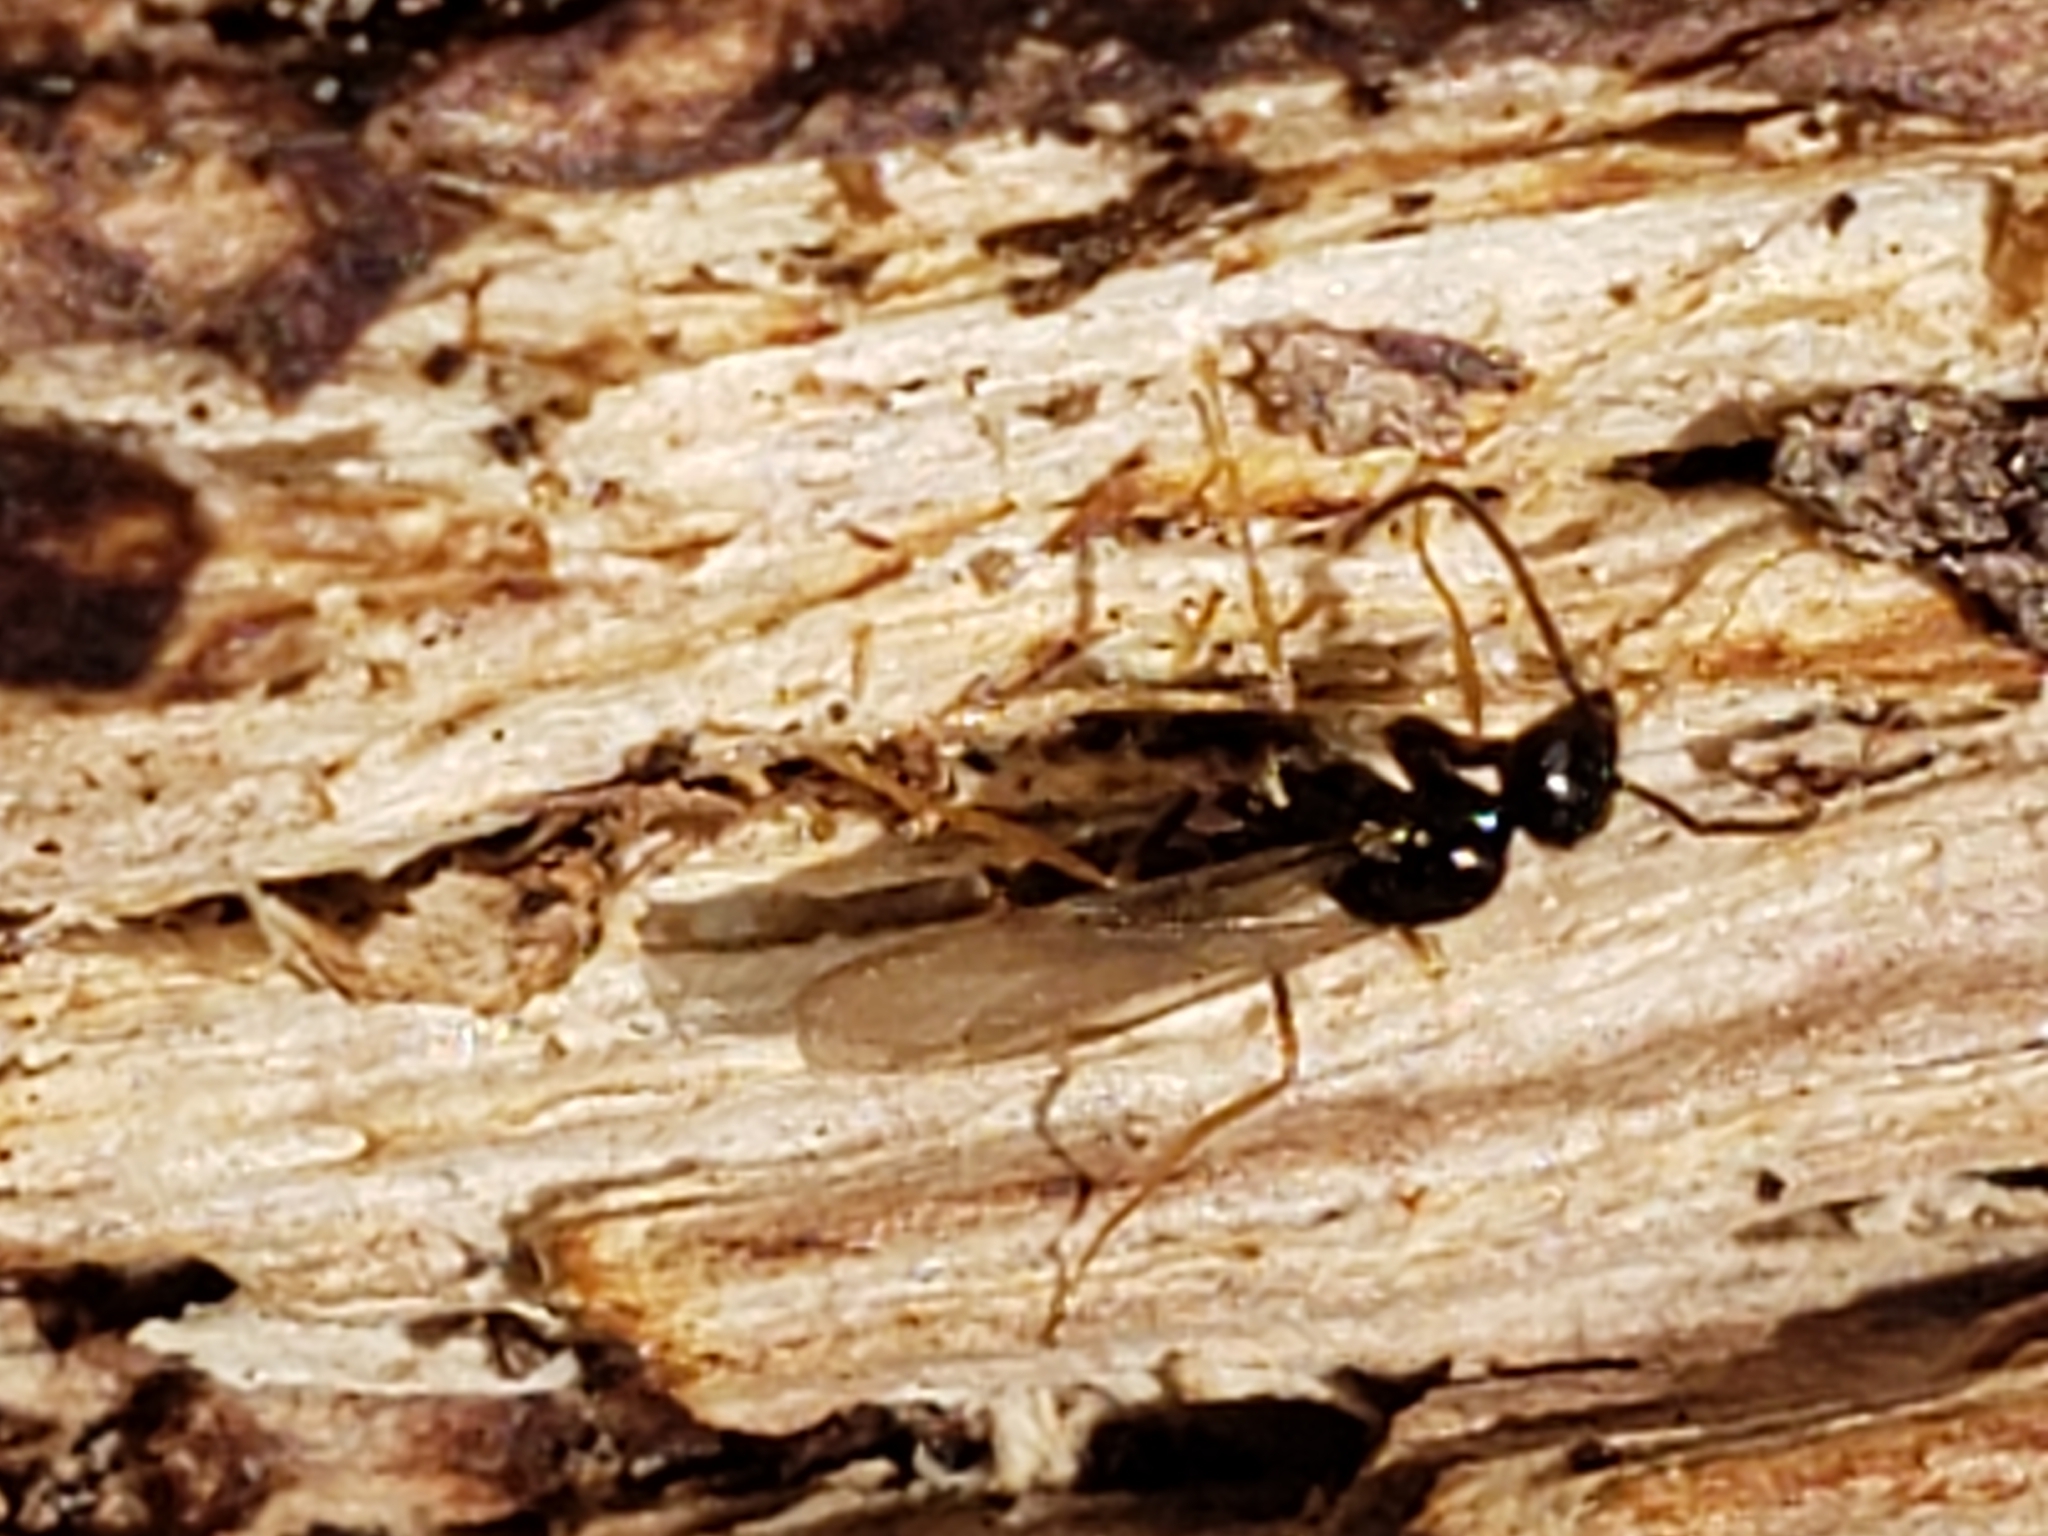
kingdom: Animalia
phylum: Arthropoda
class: Insecta
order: Hymenoptera
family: Formicidae
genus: Prenolepis
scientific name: Prenolepis imparis
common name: Small honey ant
